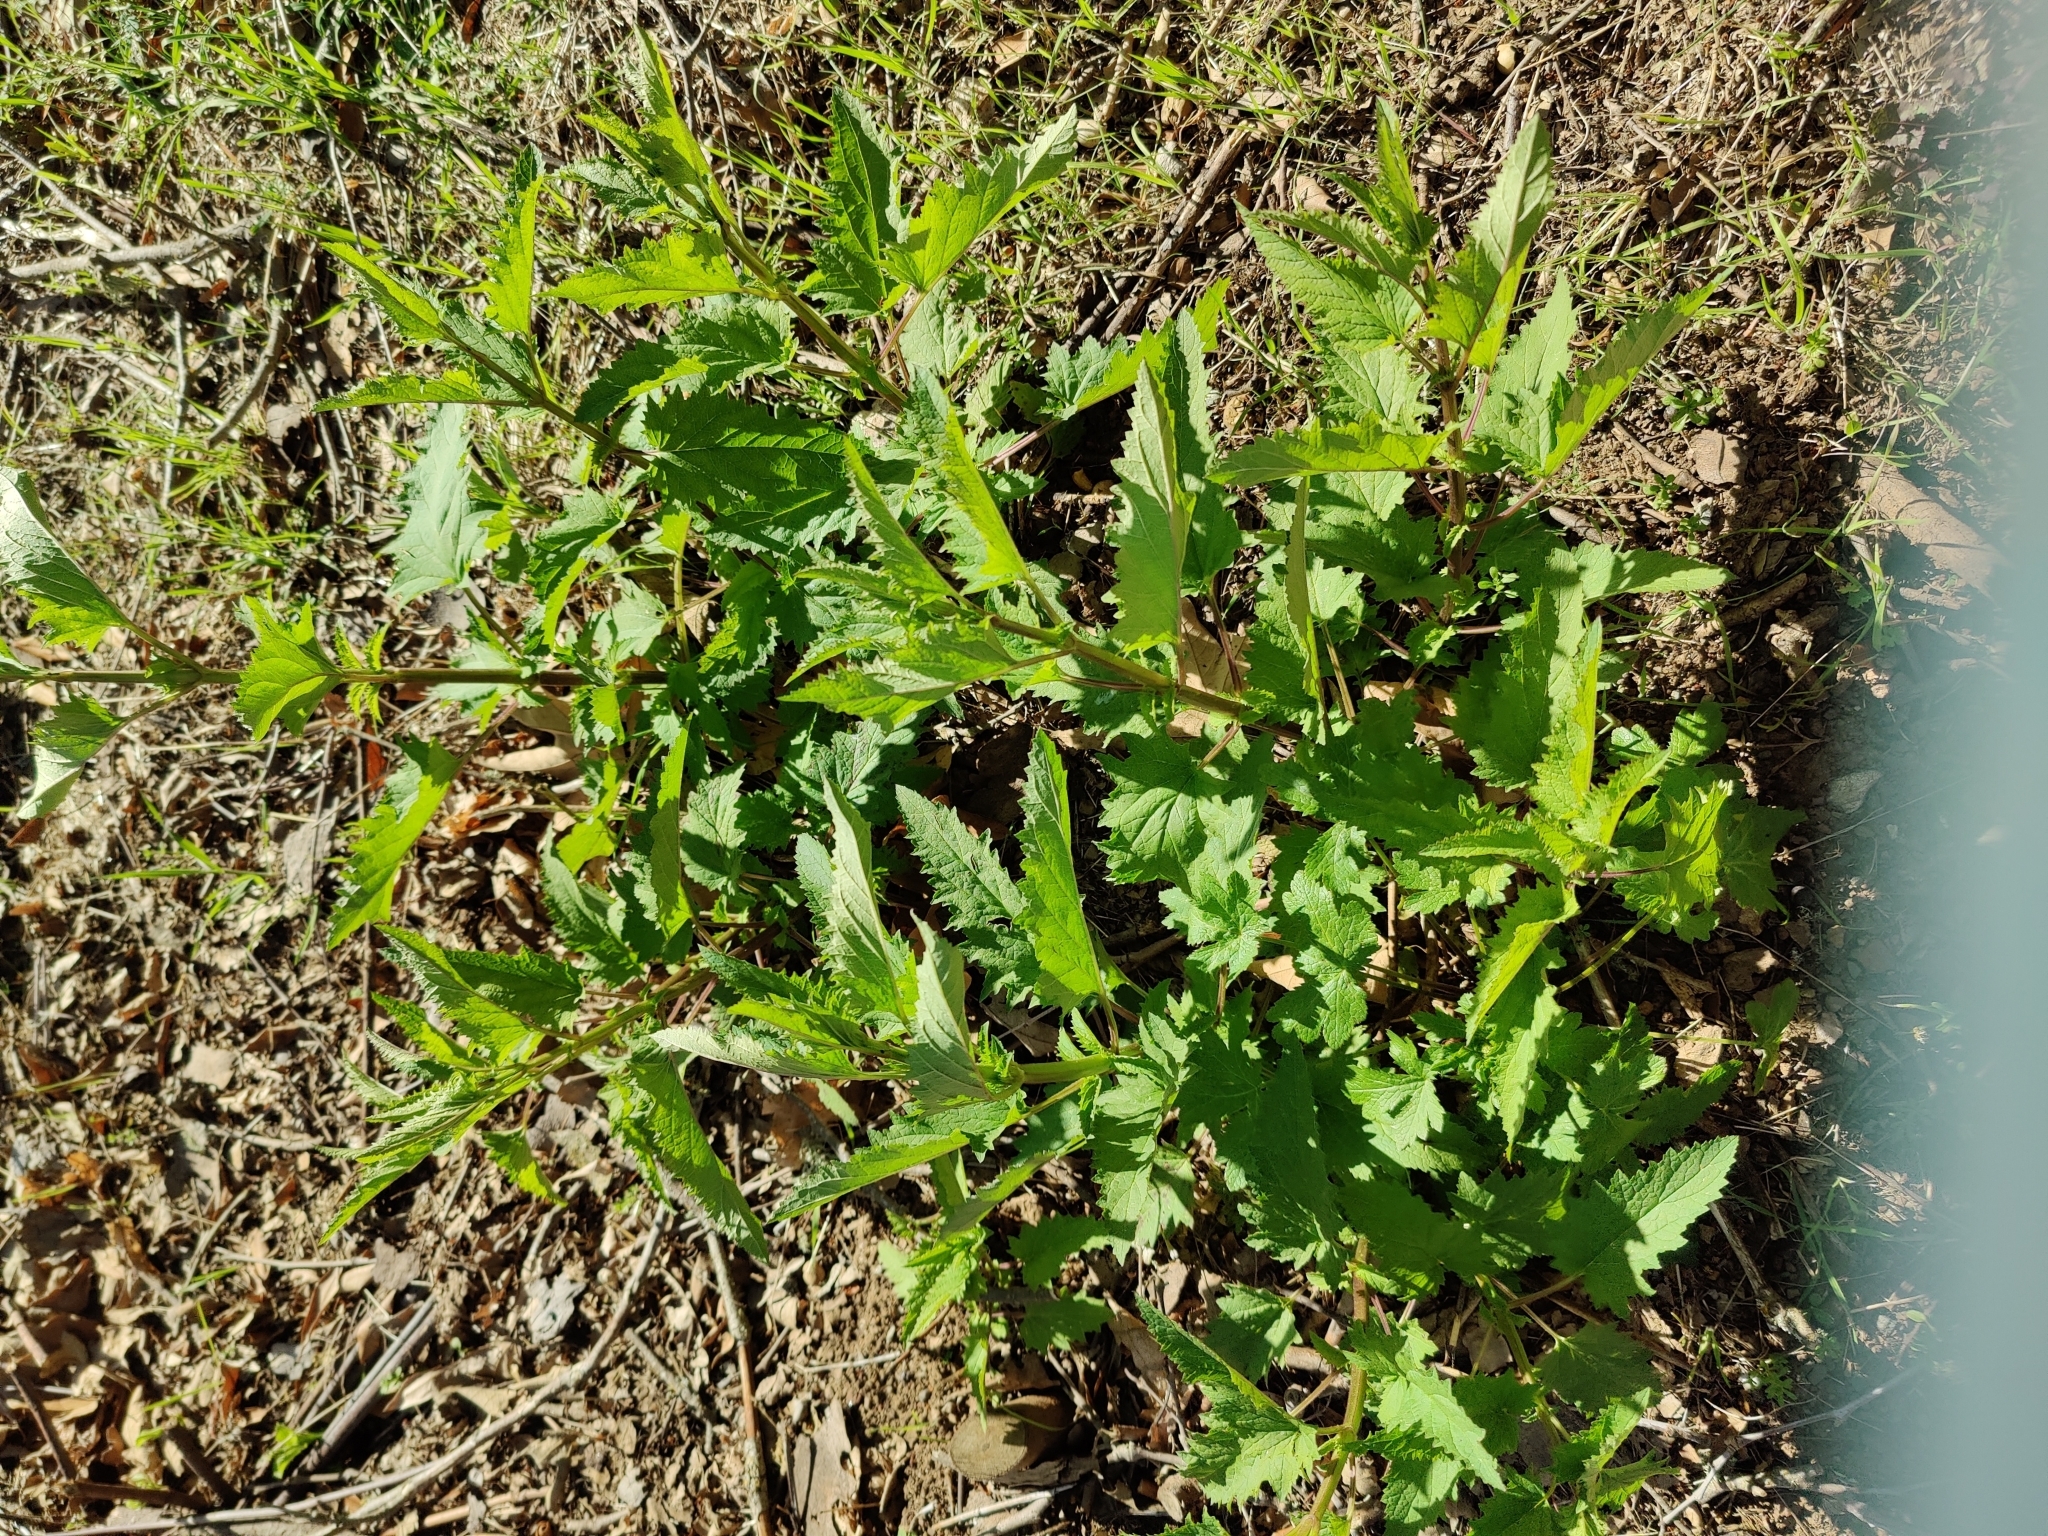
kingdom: Plantae
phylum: Tracheophyta
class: Magnoliopsida
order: Lamiales
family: Scrophulariaceae
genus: Scrophularia
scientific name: Scrophularia californica
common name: California figwort
